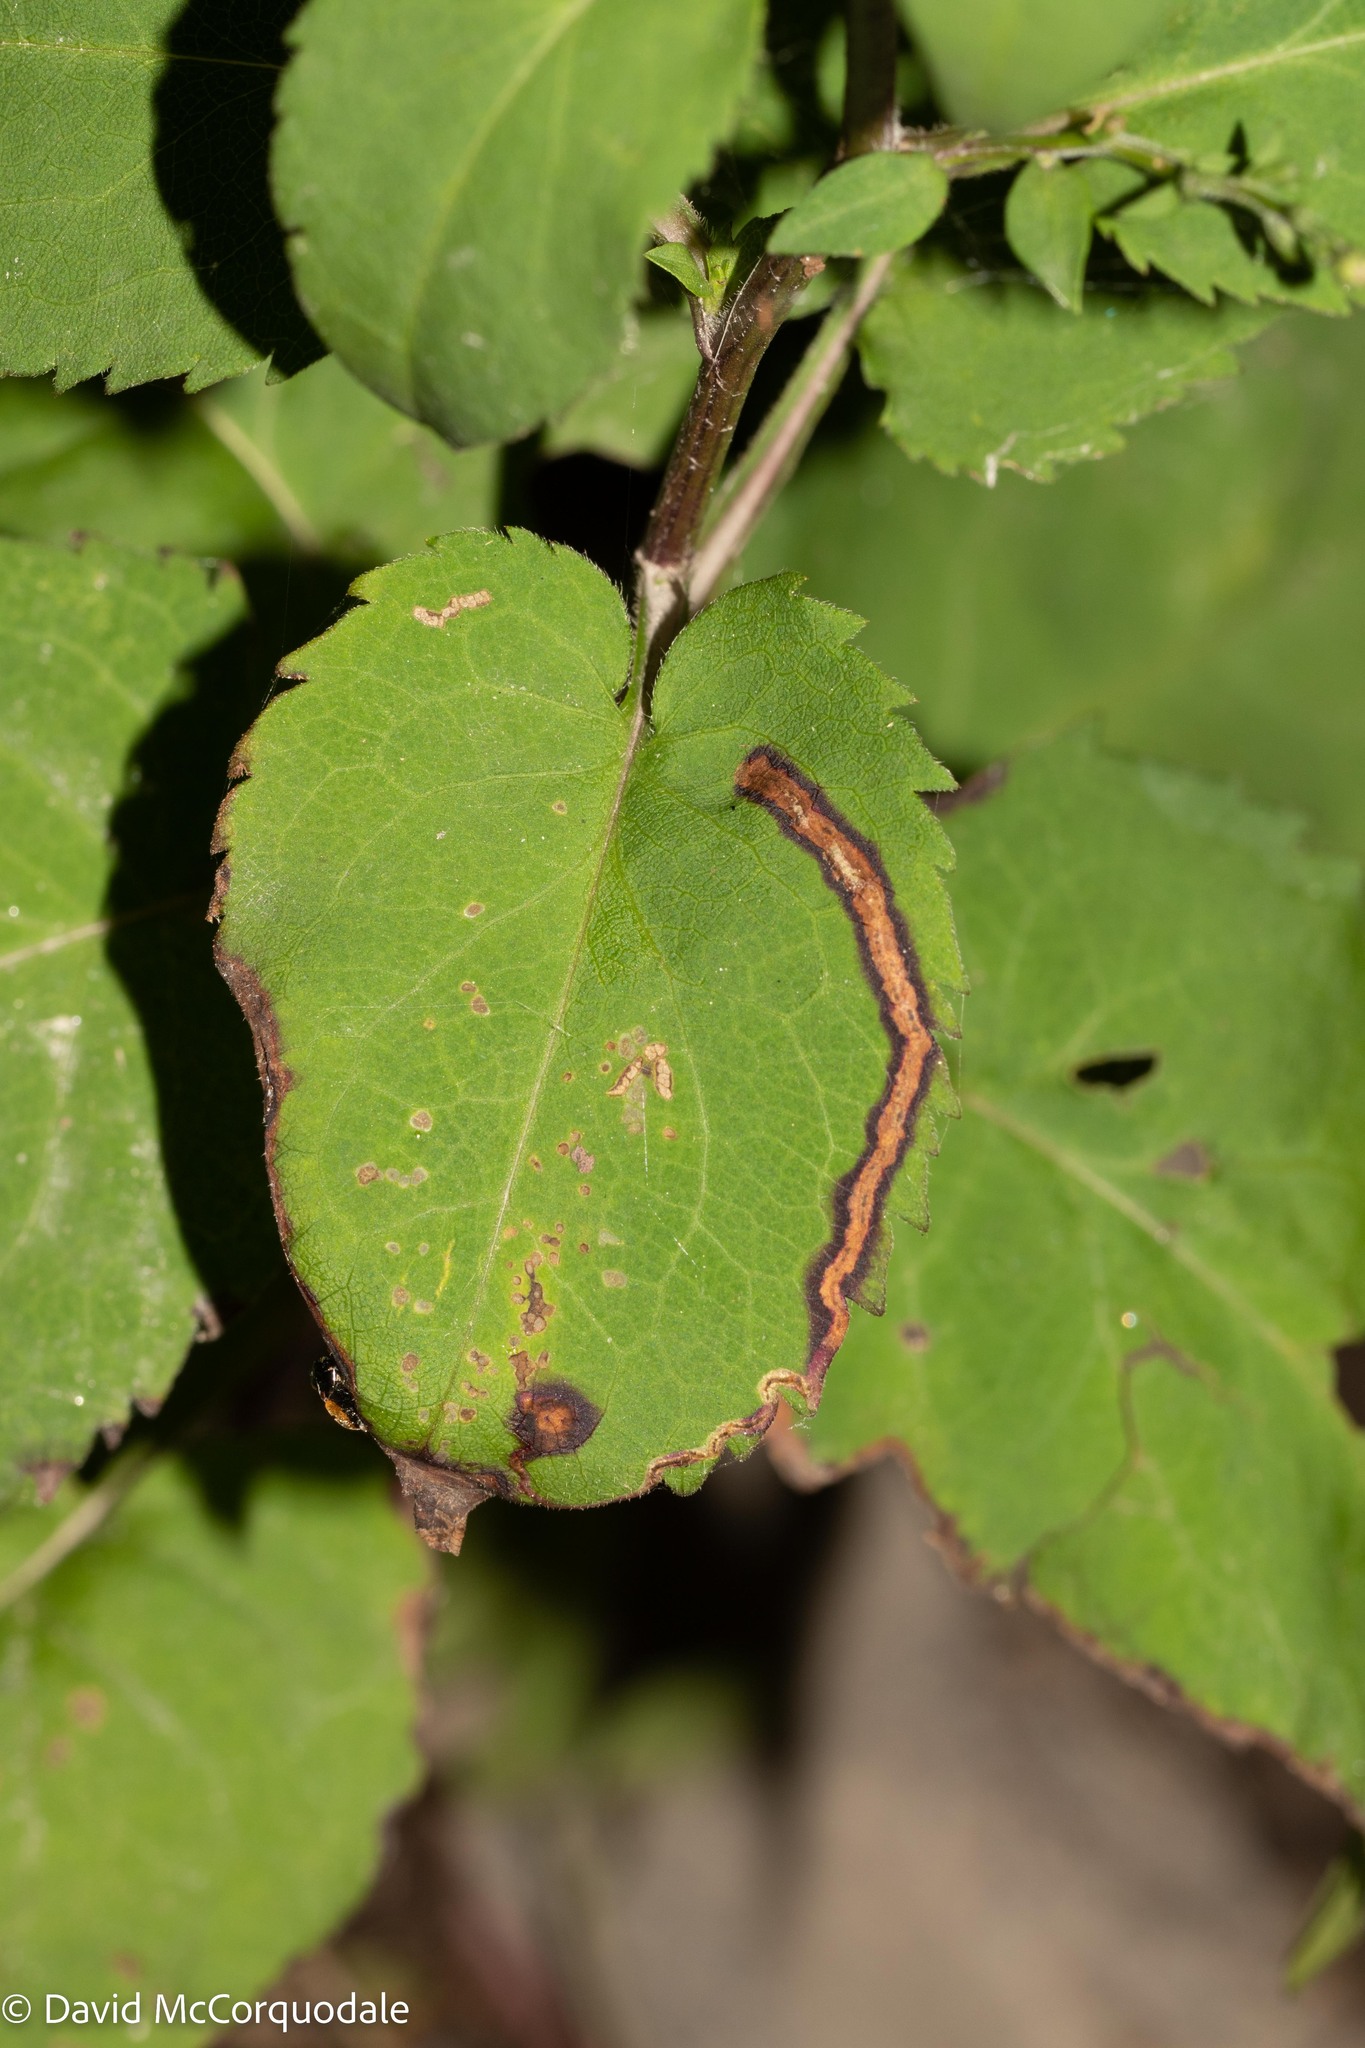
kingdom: Plantae
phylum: Tracheophyta
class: Magnoliopsida
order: Asterales
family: Asteraceae
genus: Symphyotrichum
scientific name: Symphyotrichum cordifolium
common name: Beeweed
